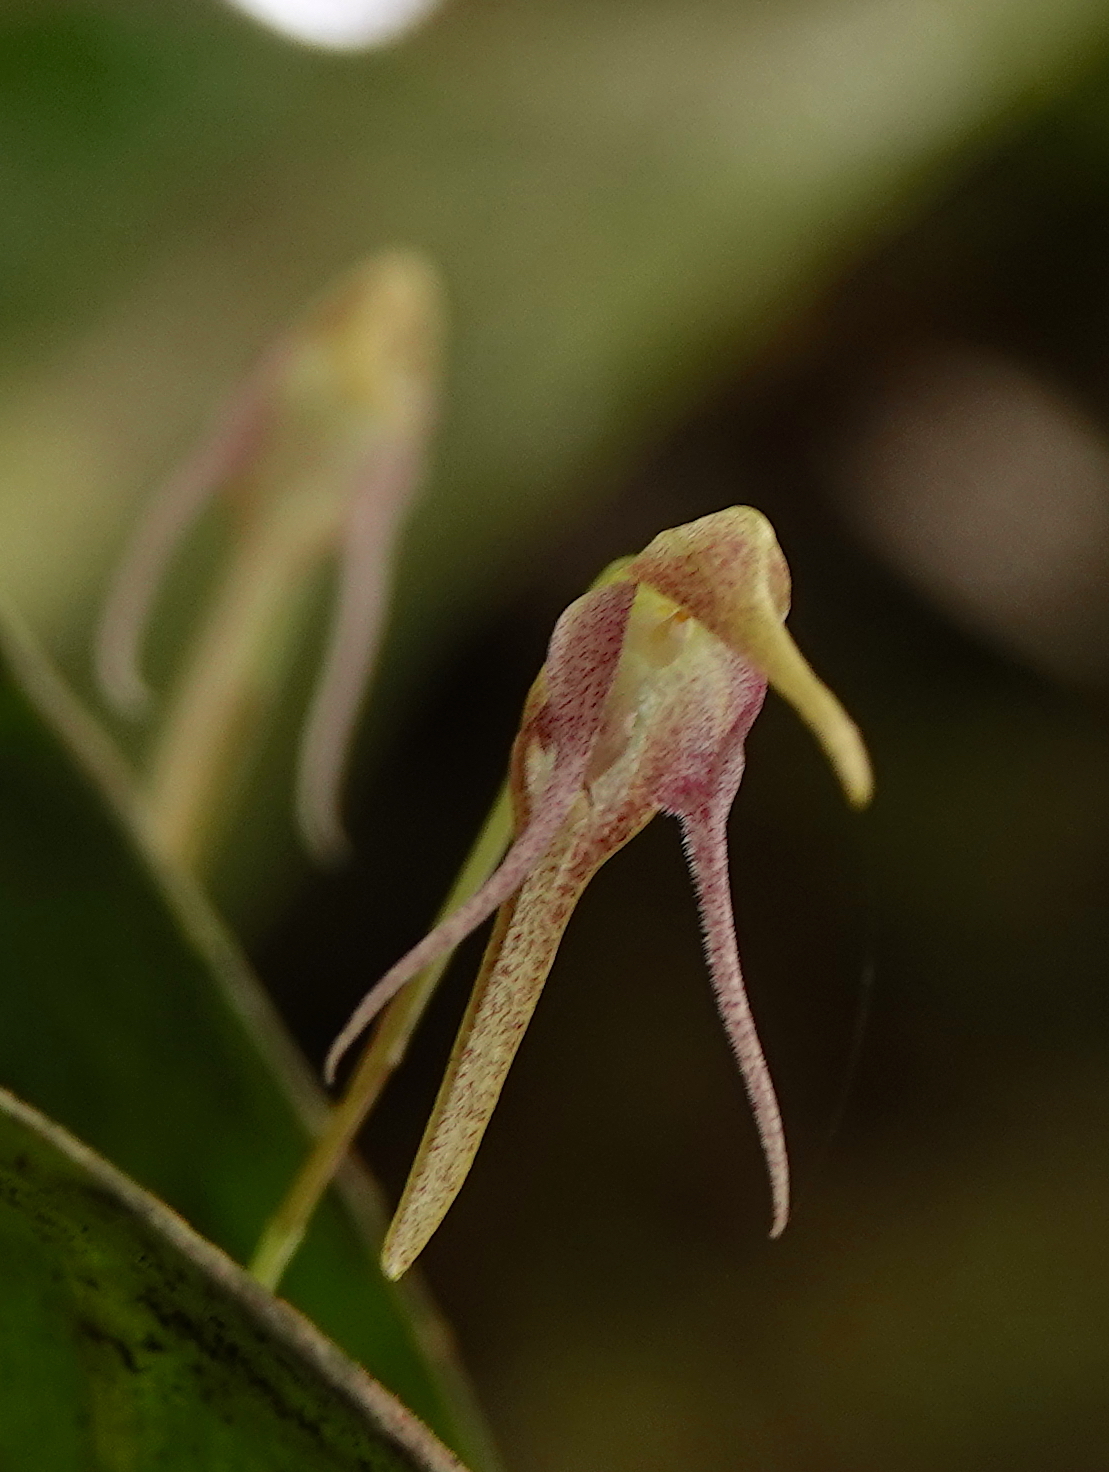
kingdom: Plantae
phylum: Tracheophyta
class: Liliopsida
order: Asparagales
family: Orchidaceae
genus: Pleurothallis
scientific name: Pleurothallis tetragona
